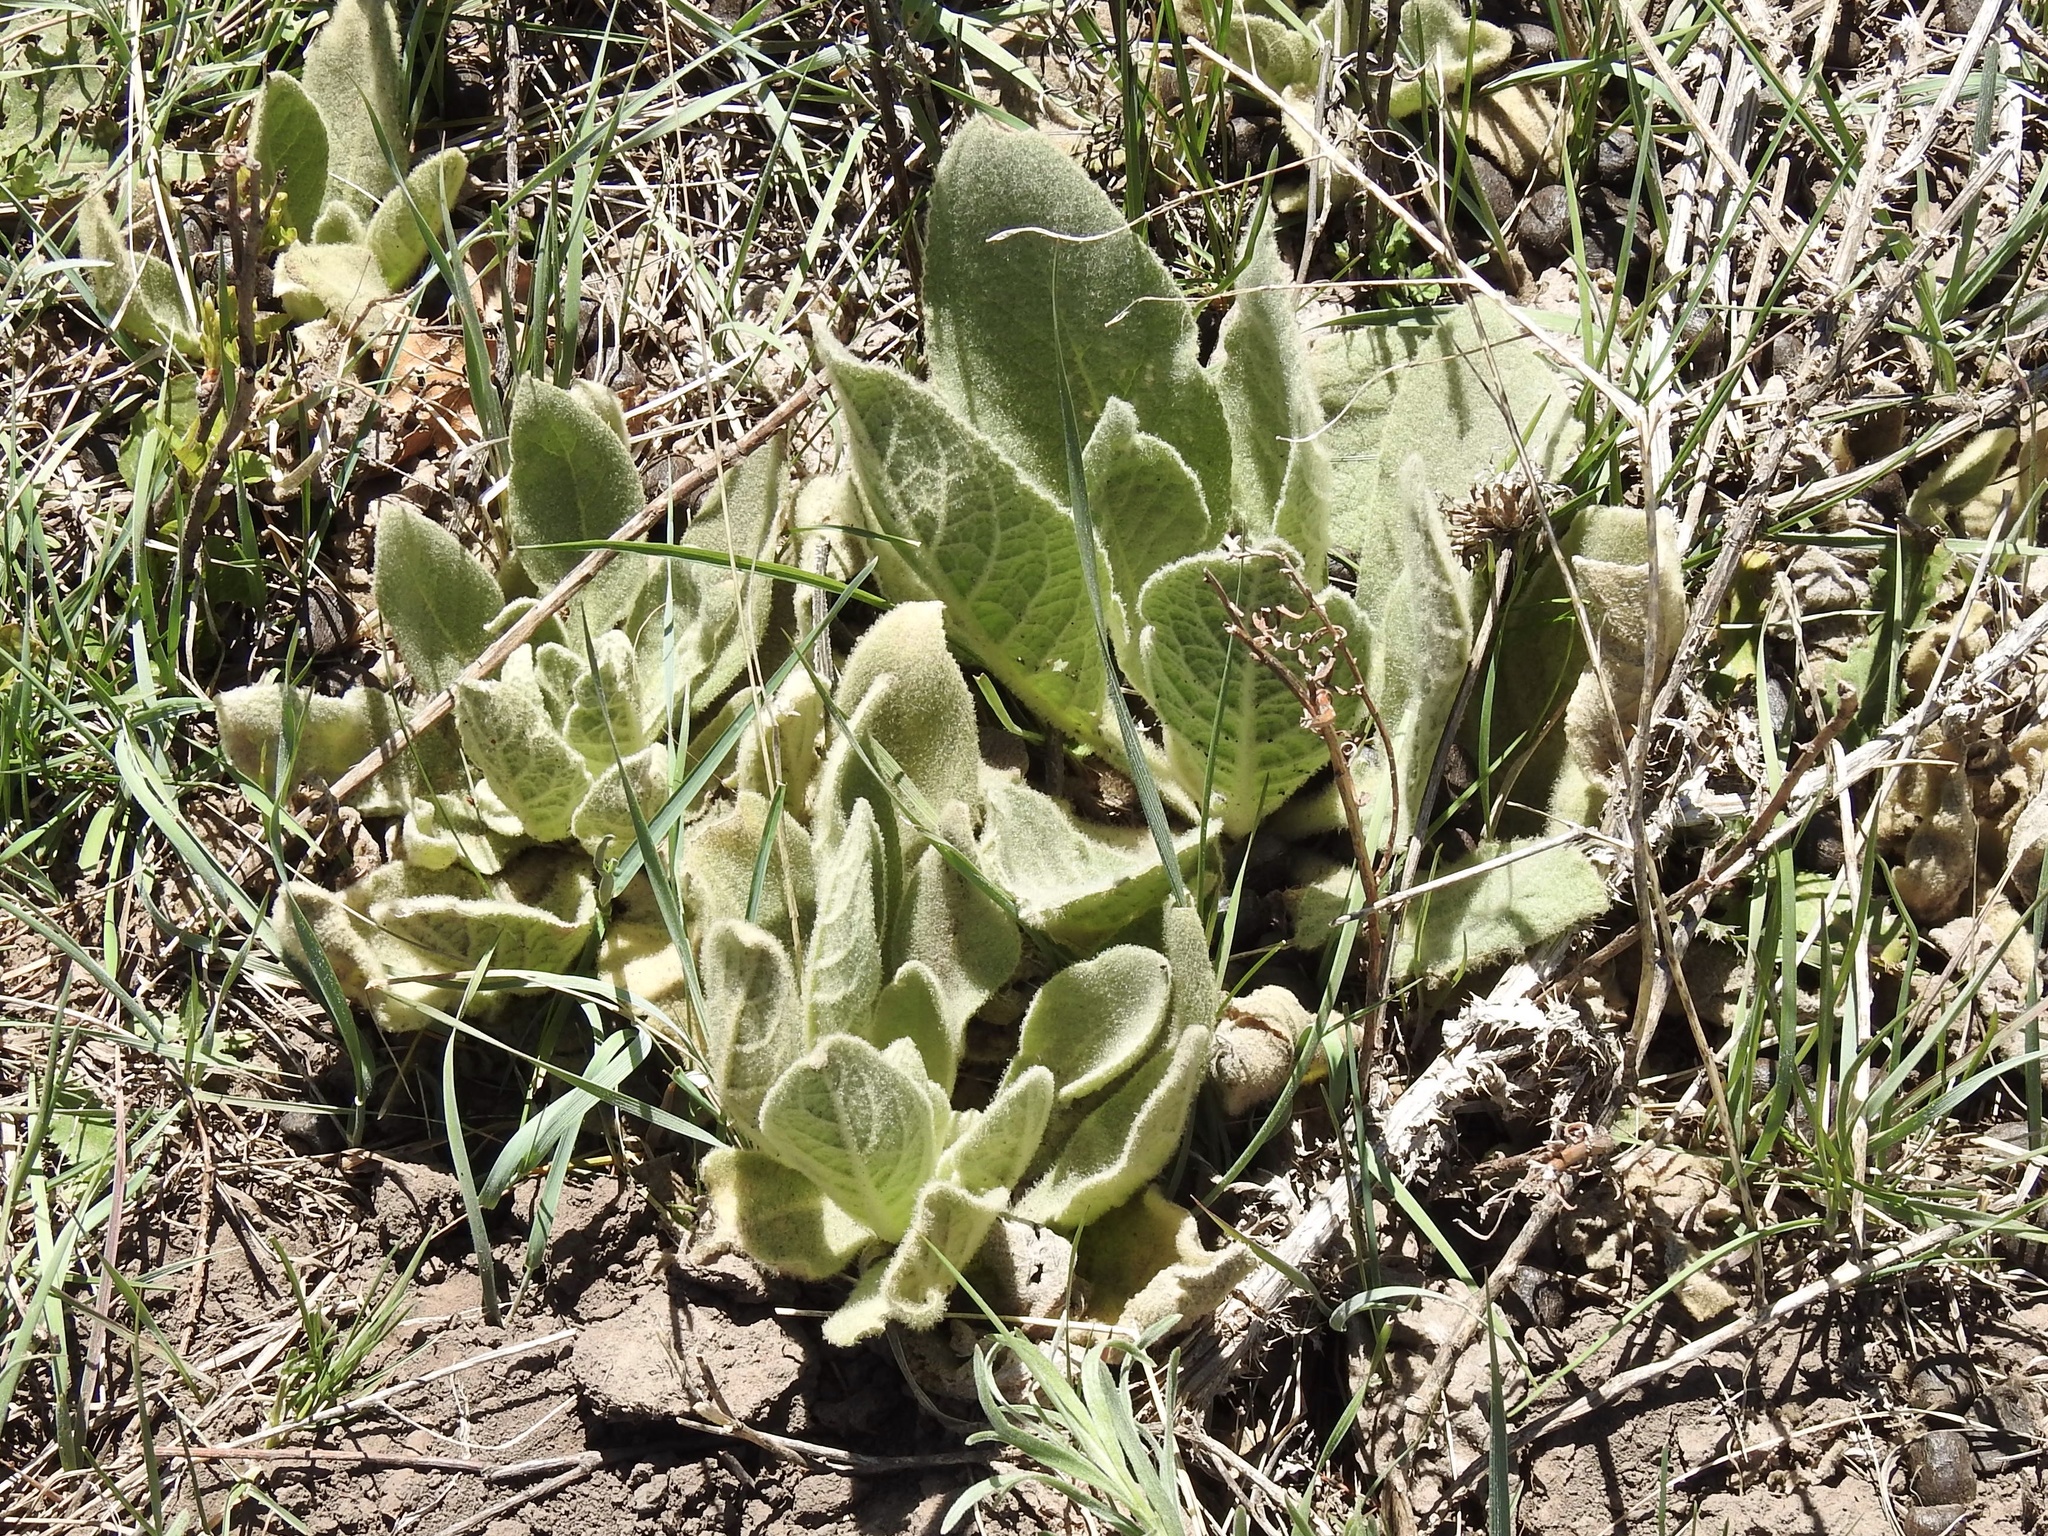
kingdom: Plantae
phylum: Tracheophyta
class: Magnoliopsida
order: Lamiales
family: Scrophulariaceae
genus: Verbascum
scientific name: Verbascum thapsus
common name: Common mullein
